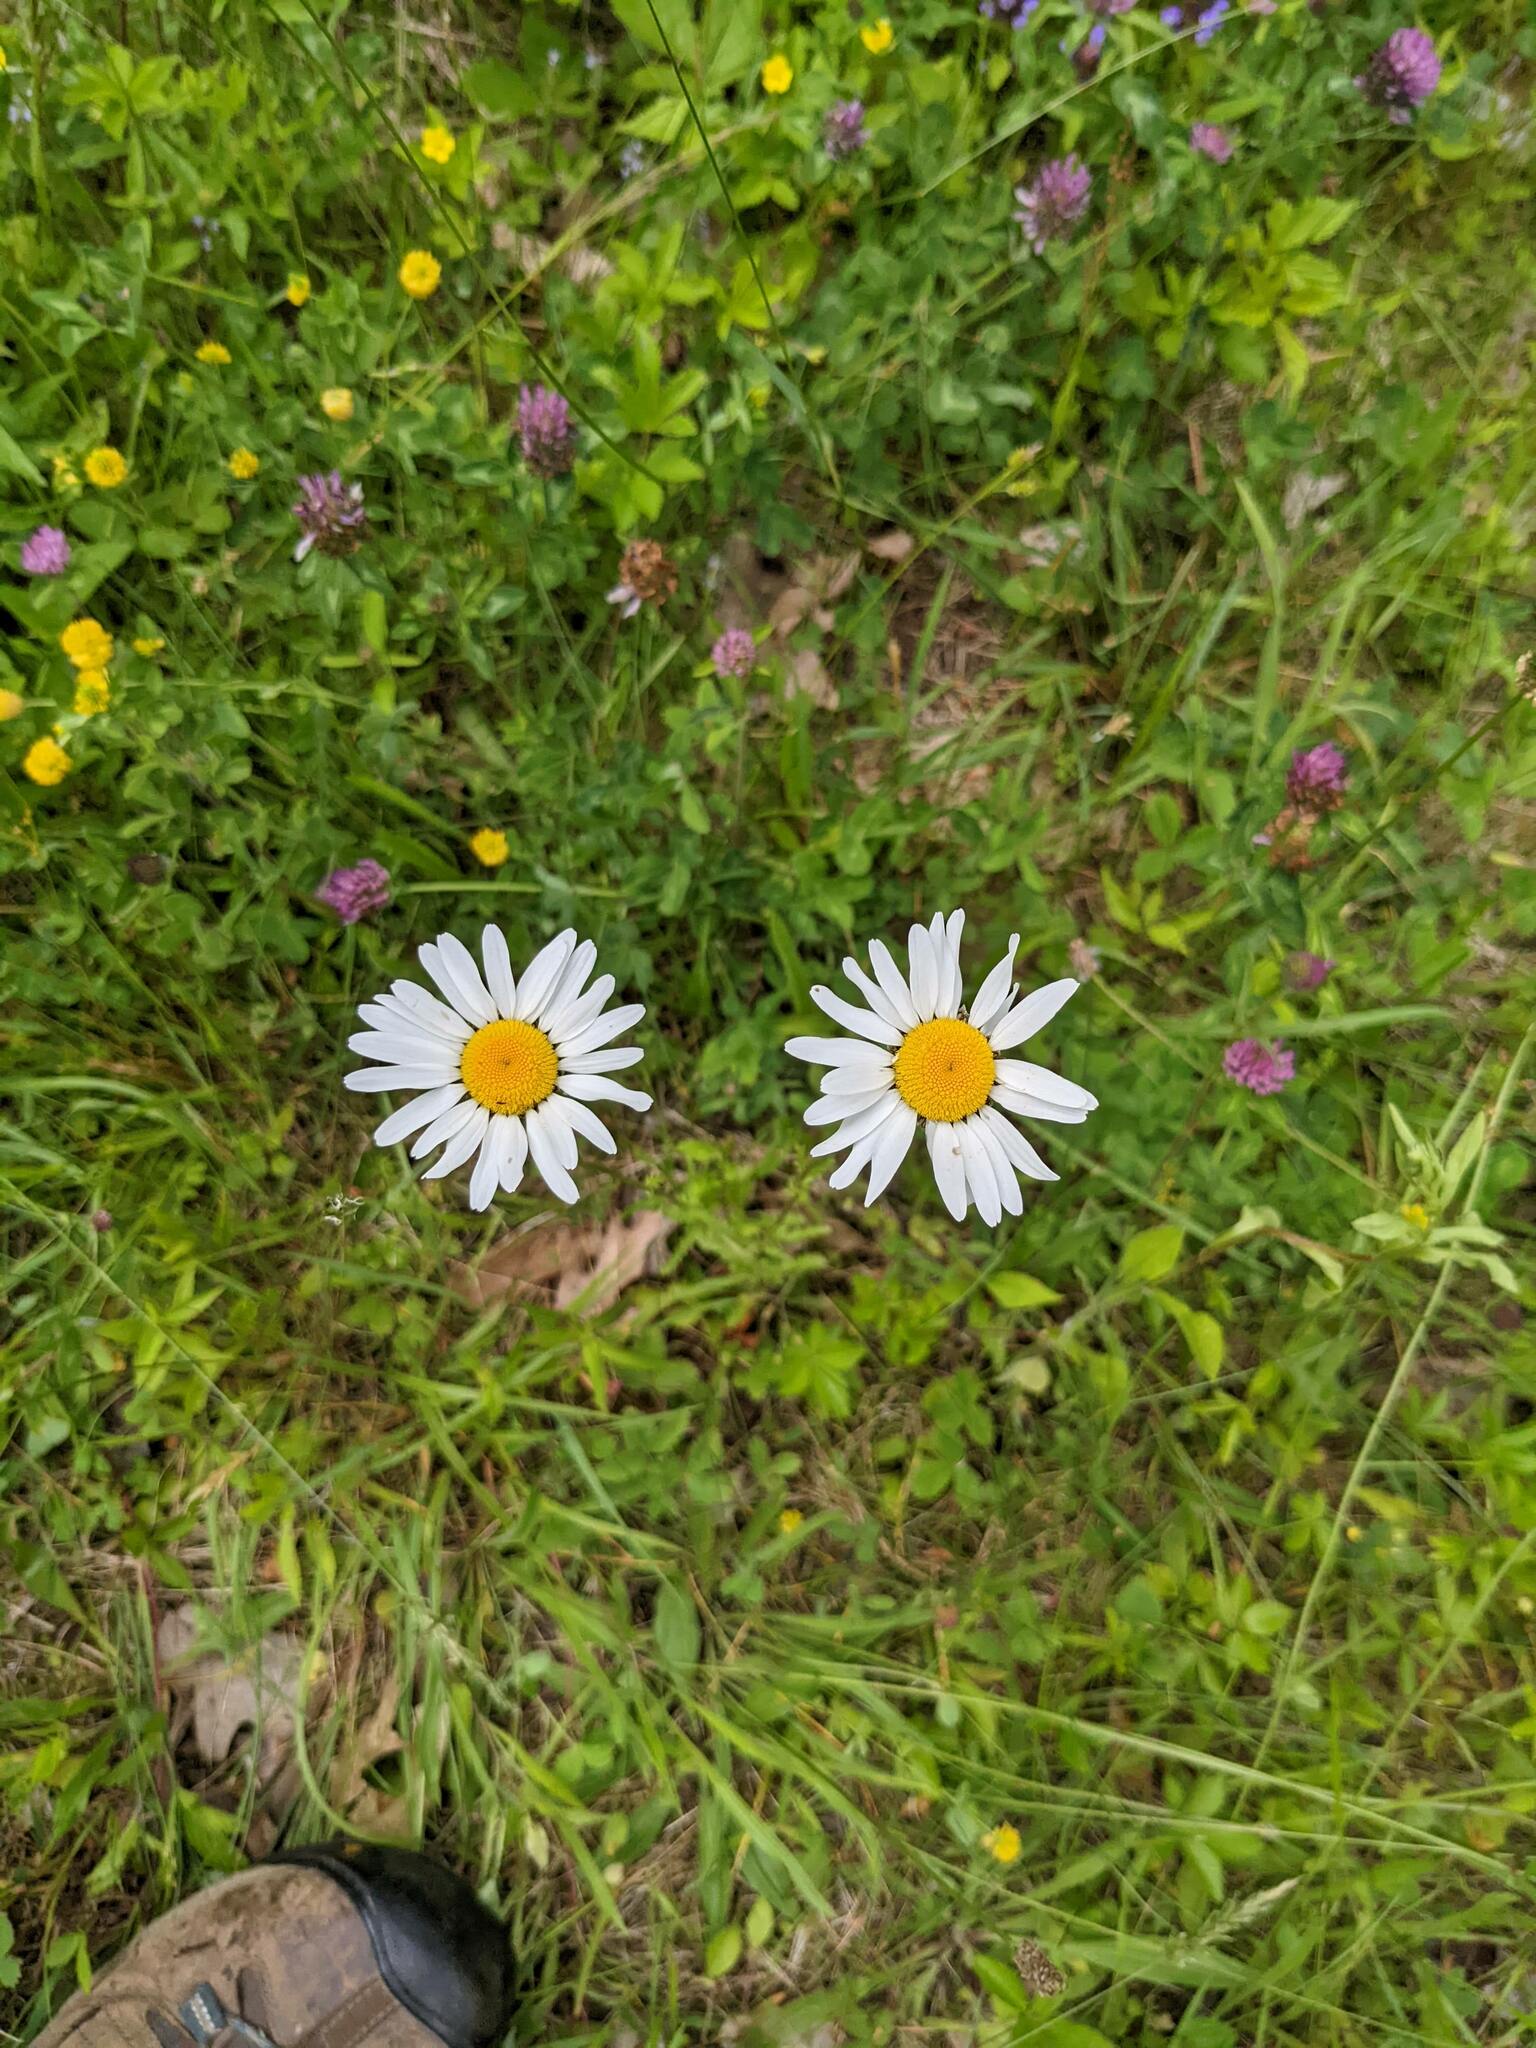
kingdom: Plantae
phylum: Tracheophyta
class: Magnoliopsida
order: Asterales
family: Asteraceae
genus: Leucanthemum
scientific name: Leucanthemum vulgare
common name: Oxeye daisy
